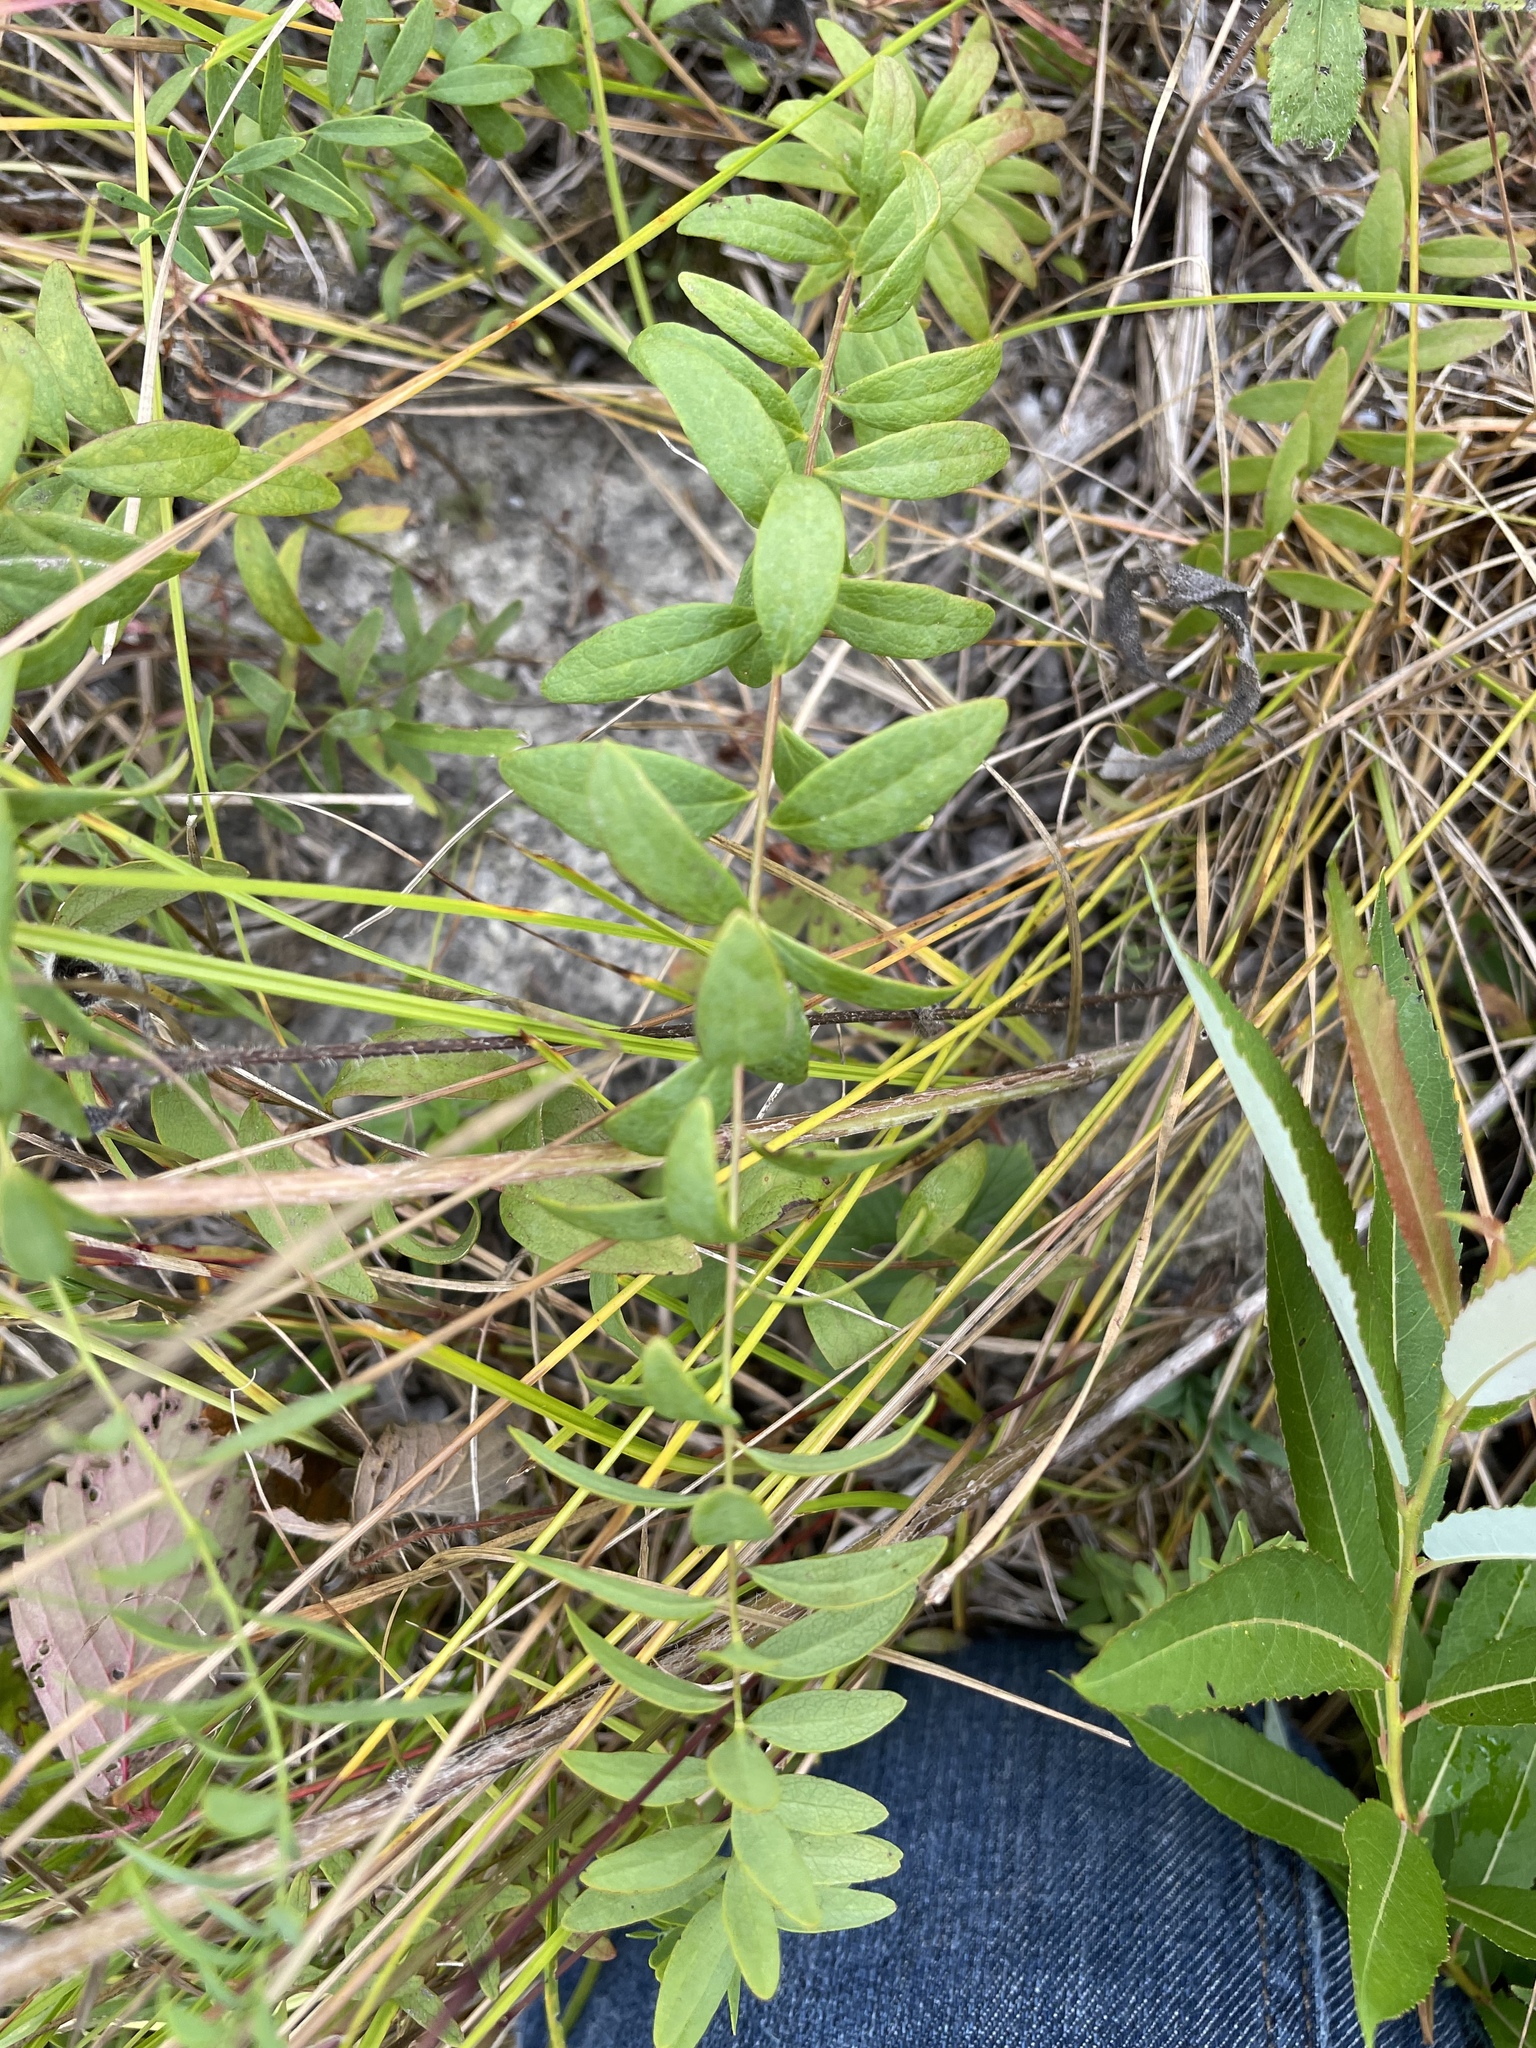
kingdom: Plantae
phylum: Tracheophyta
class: Magnoliopsida
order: Santalales
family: Comandraceae
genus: Comandra
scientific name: Comandra umbellata
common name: Bastard toadflax
